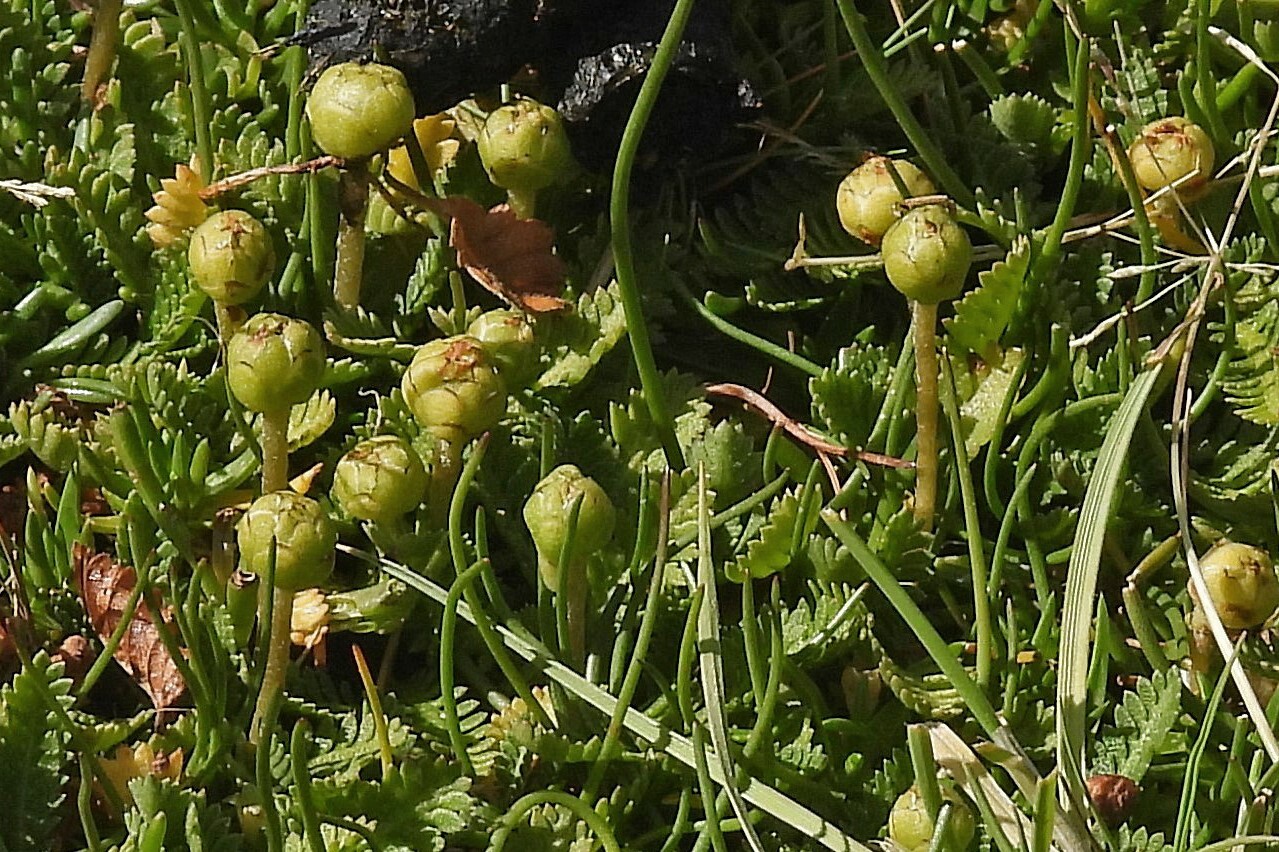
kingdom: Plantae
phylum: Tracheophyta
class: Magnoliopsida
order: Asterales
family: Asteraceae
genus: Leptinella
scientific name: Leptinella scariosa
